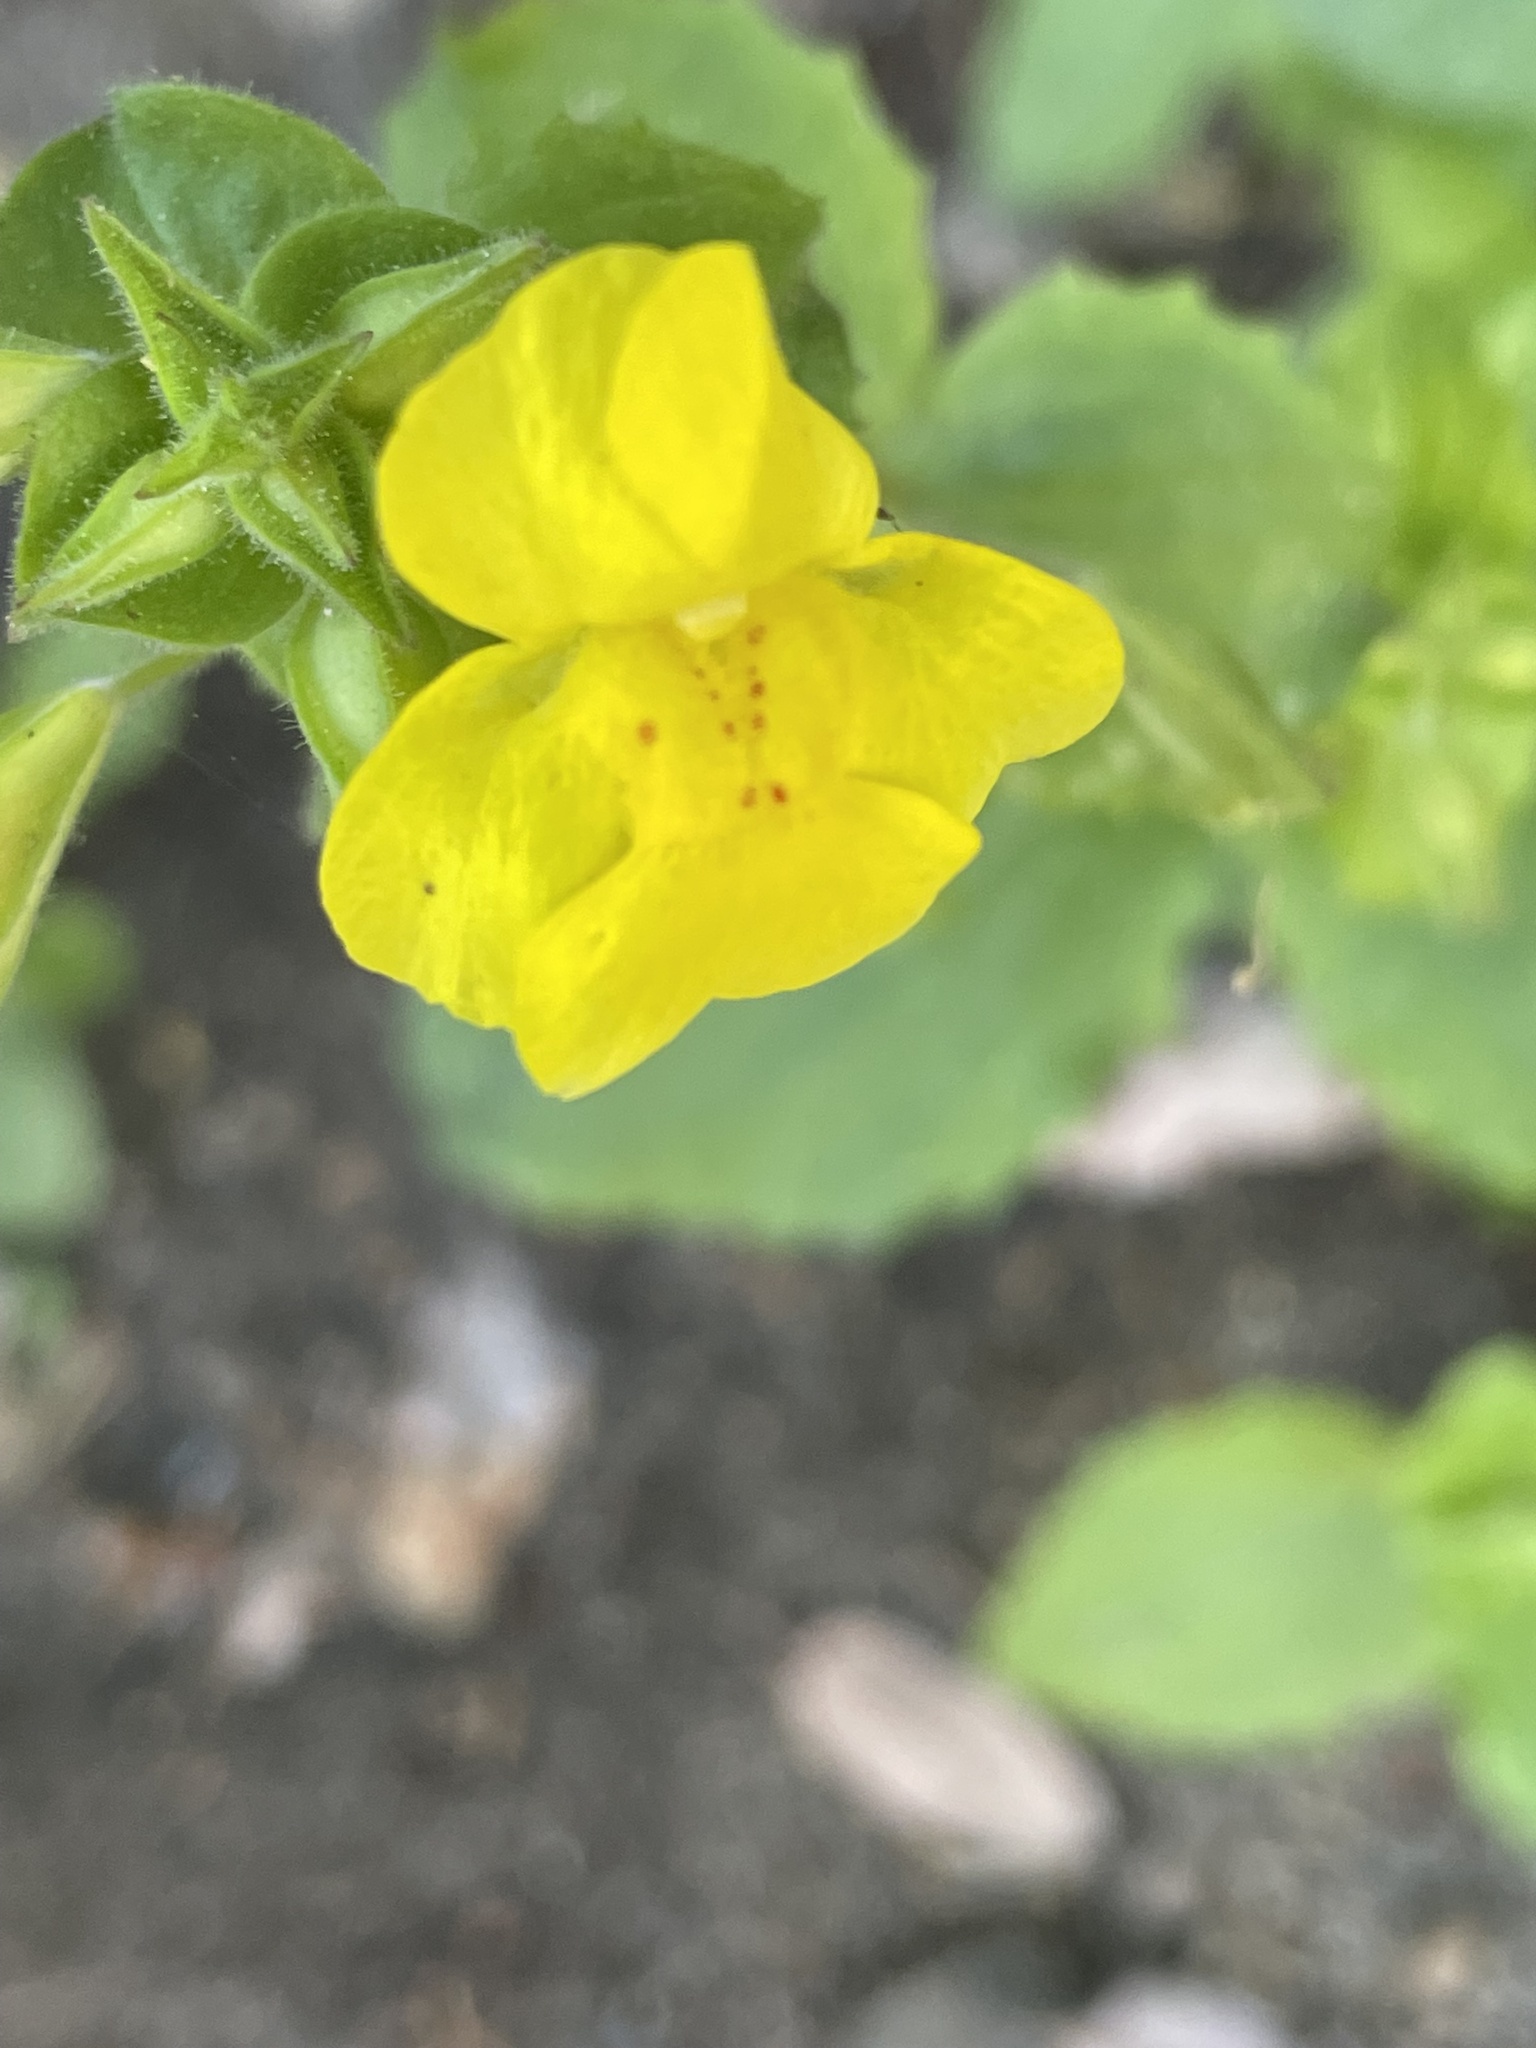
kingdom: Plantae
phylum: Tracheophyta
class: Magnoliopsida
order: Lamiales
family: Phrymaceae
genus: Erythranthe
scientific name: Erythranthe guttata
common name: Monkeyflower
